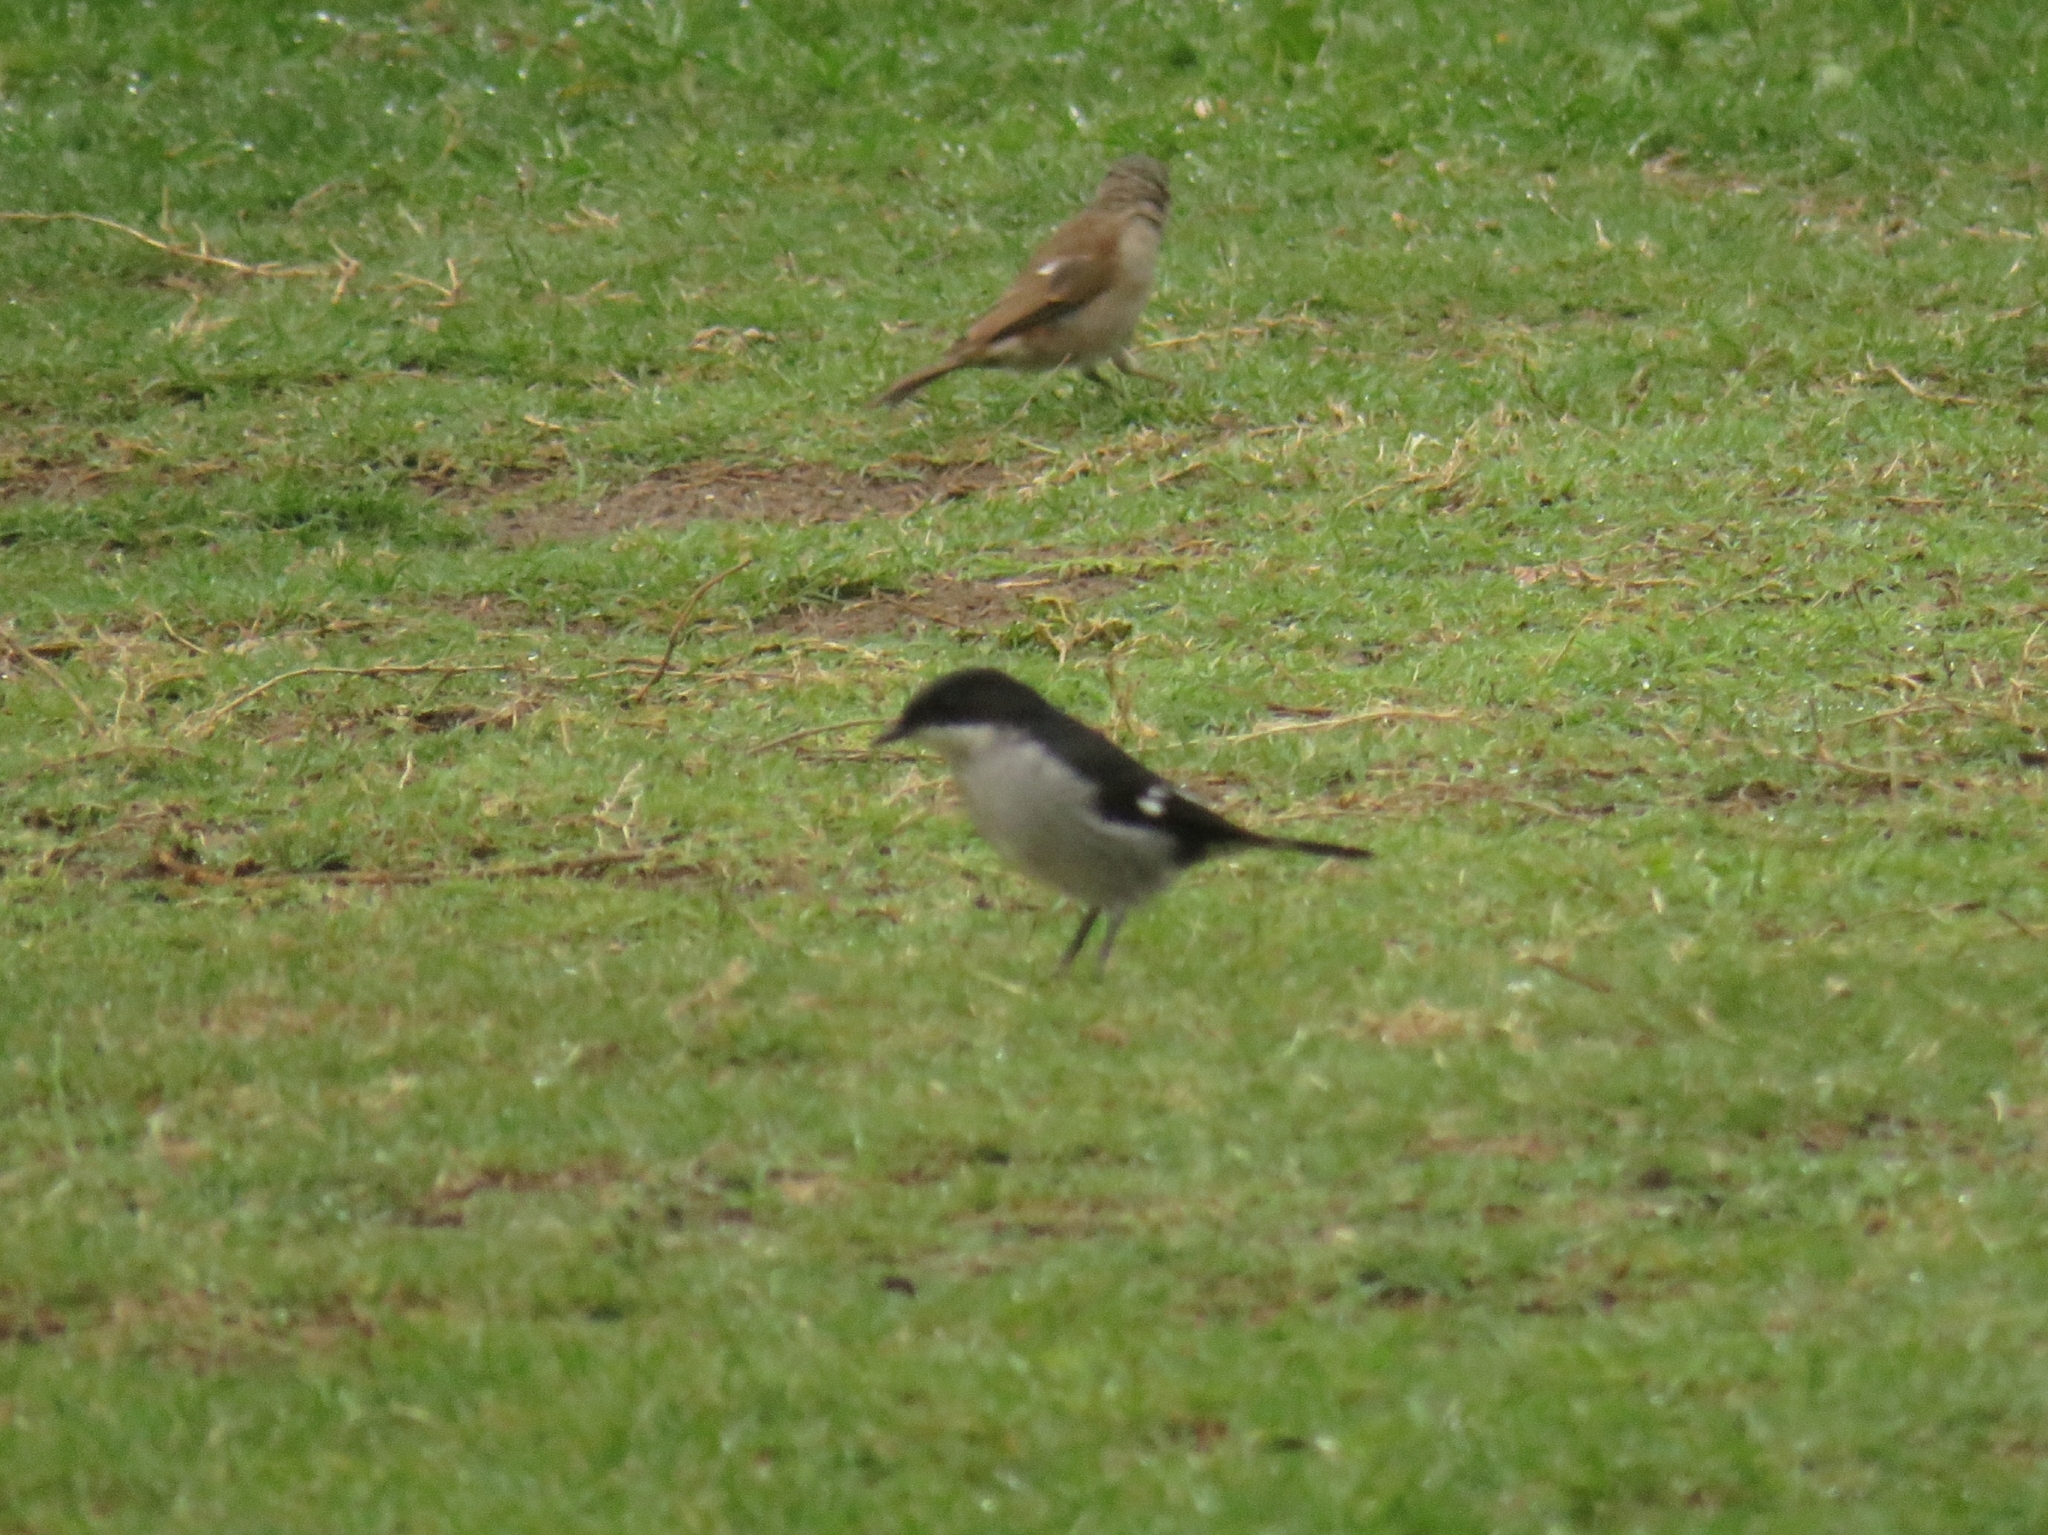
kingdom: Animalia
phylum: Chordata
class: Aves
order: Passeriformes
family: Muscicapidae
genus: Sigelus
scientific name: Sigelus silens
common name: Fiscal flycatcher
